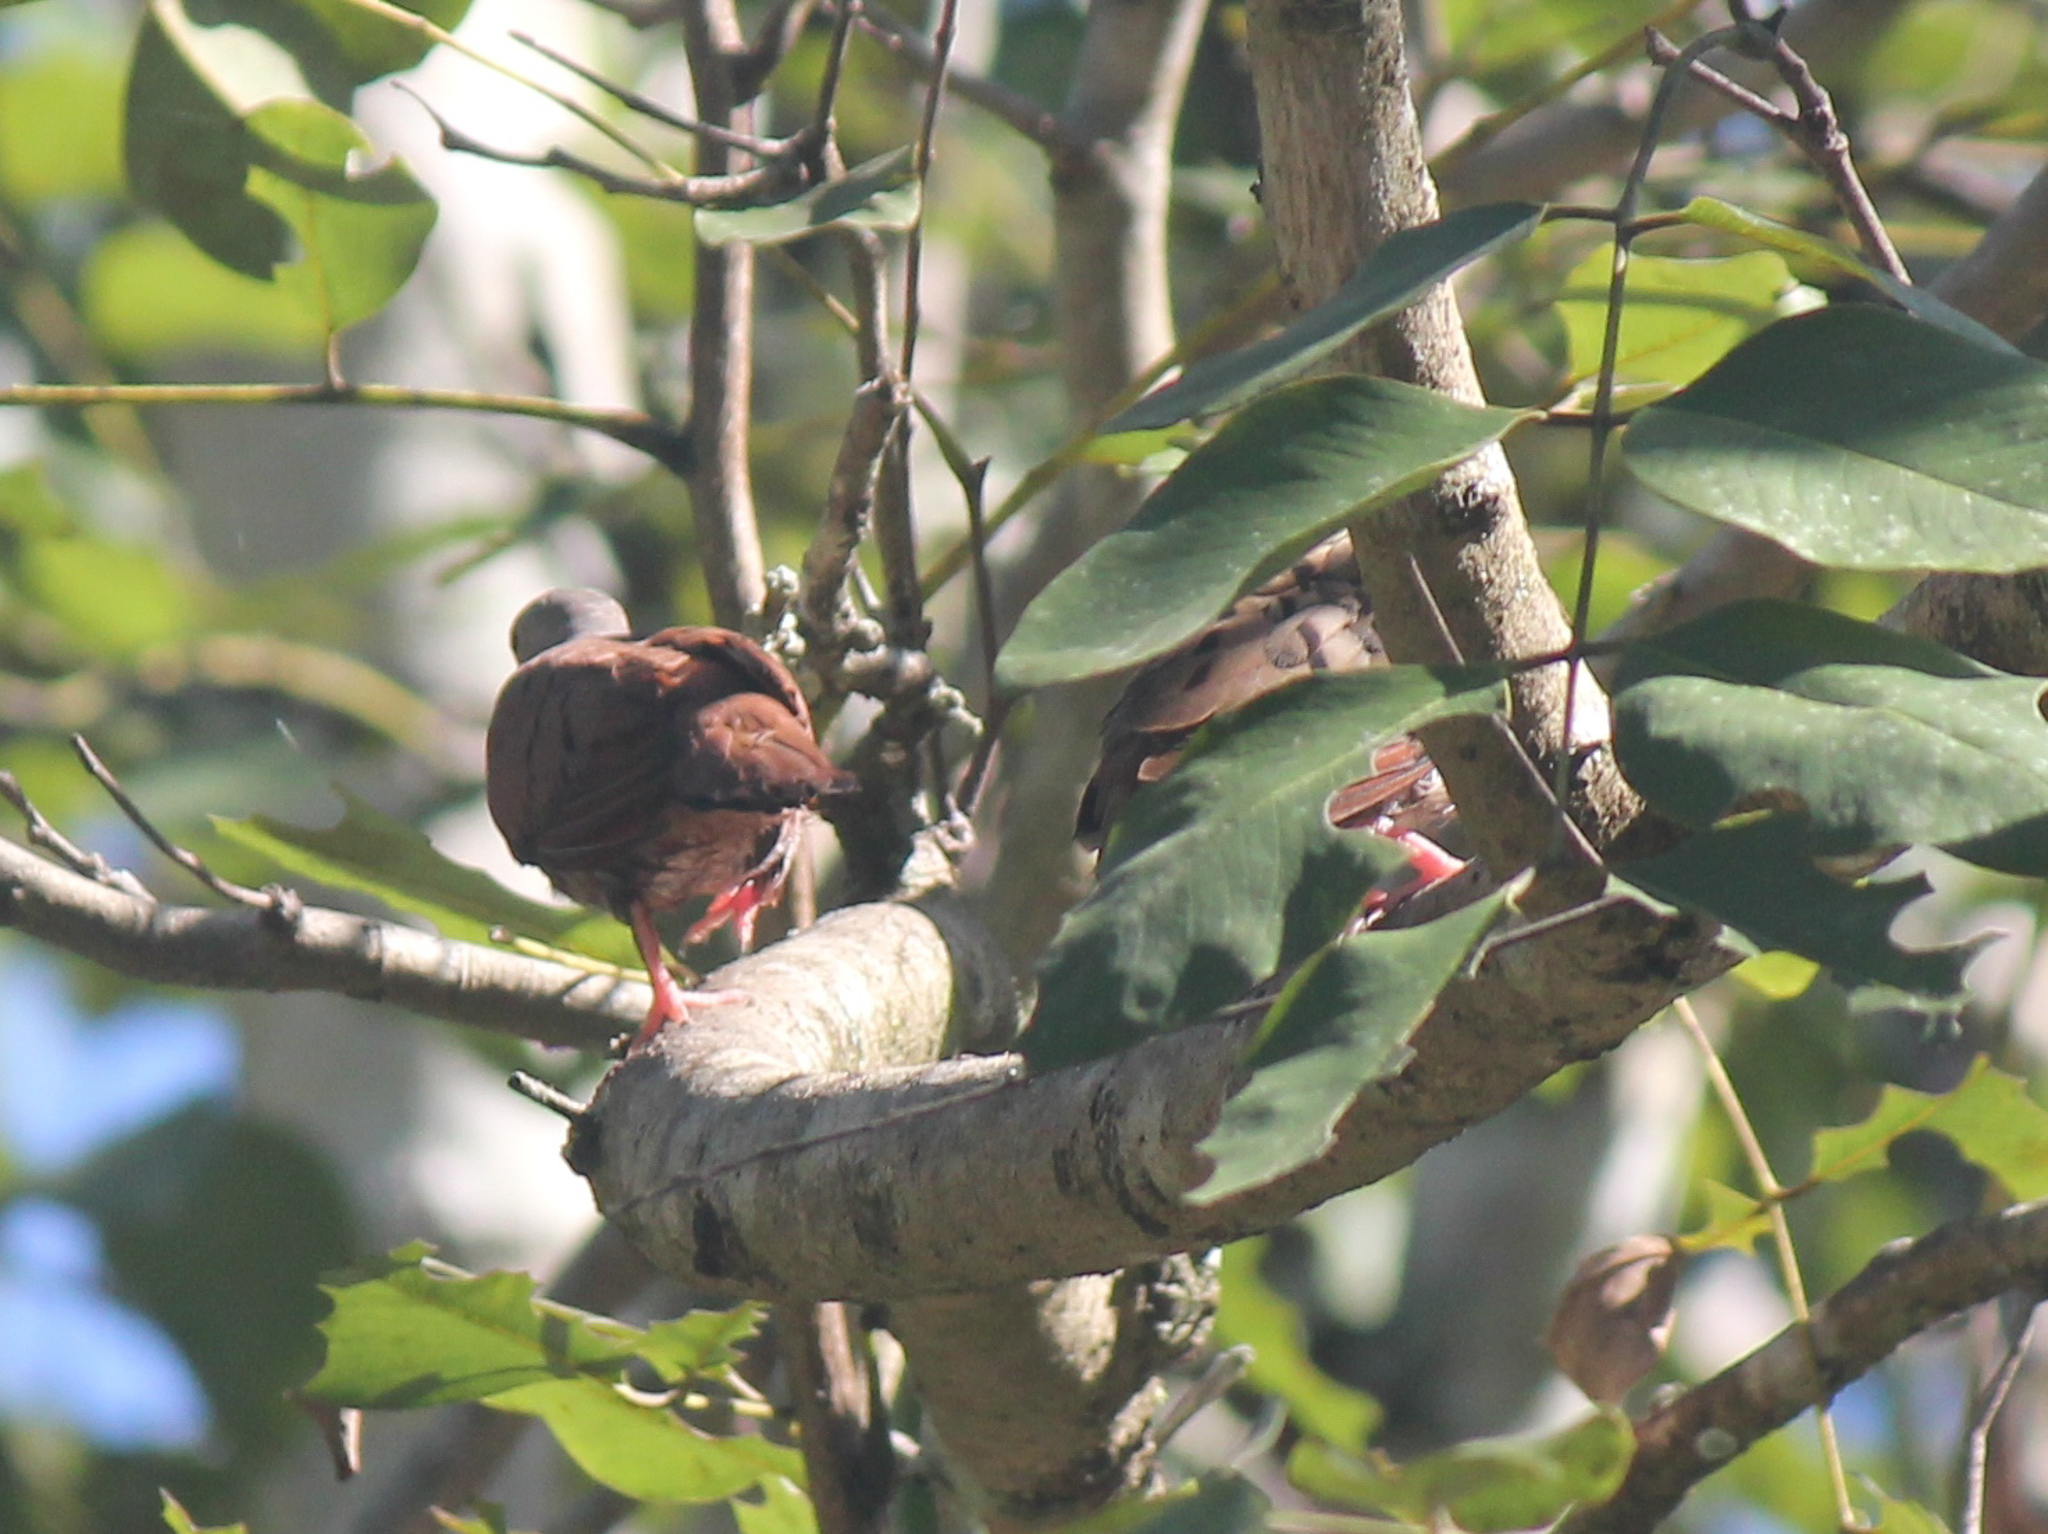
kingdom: Animalia
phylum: Chordata
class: Aves
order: Columbiformes
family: Columbidae
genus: Columbina
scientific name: Columbina talpacoti
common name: Ruddy ground dove
